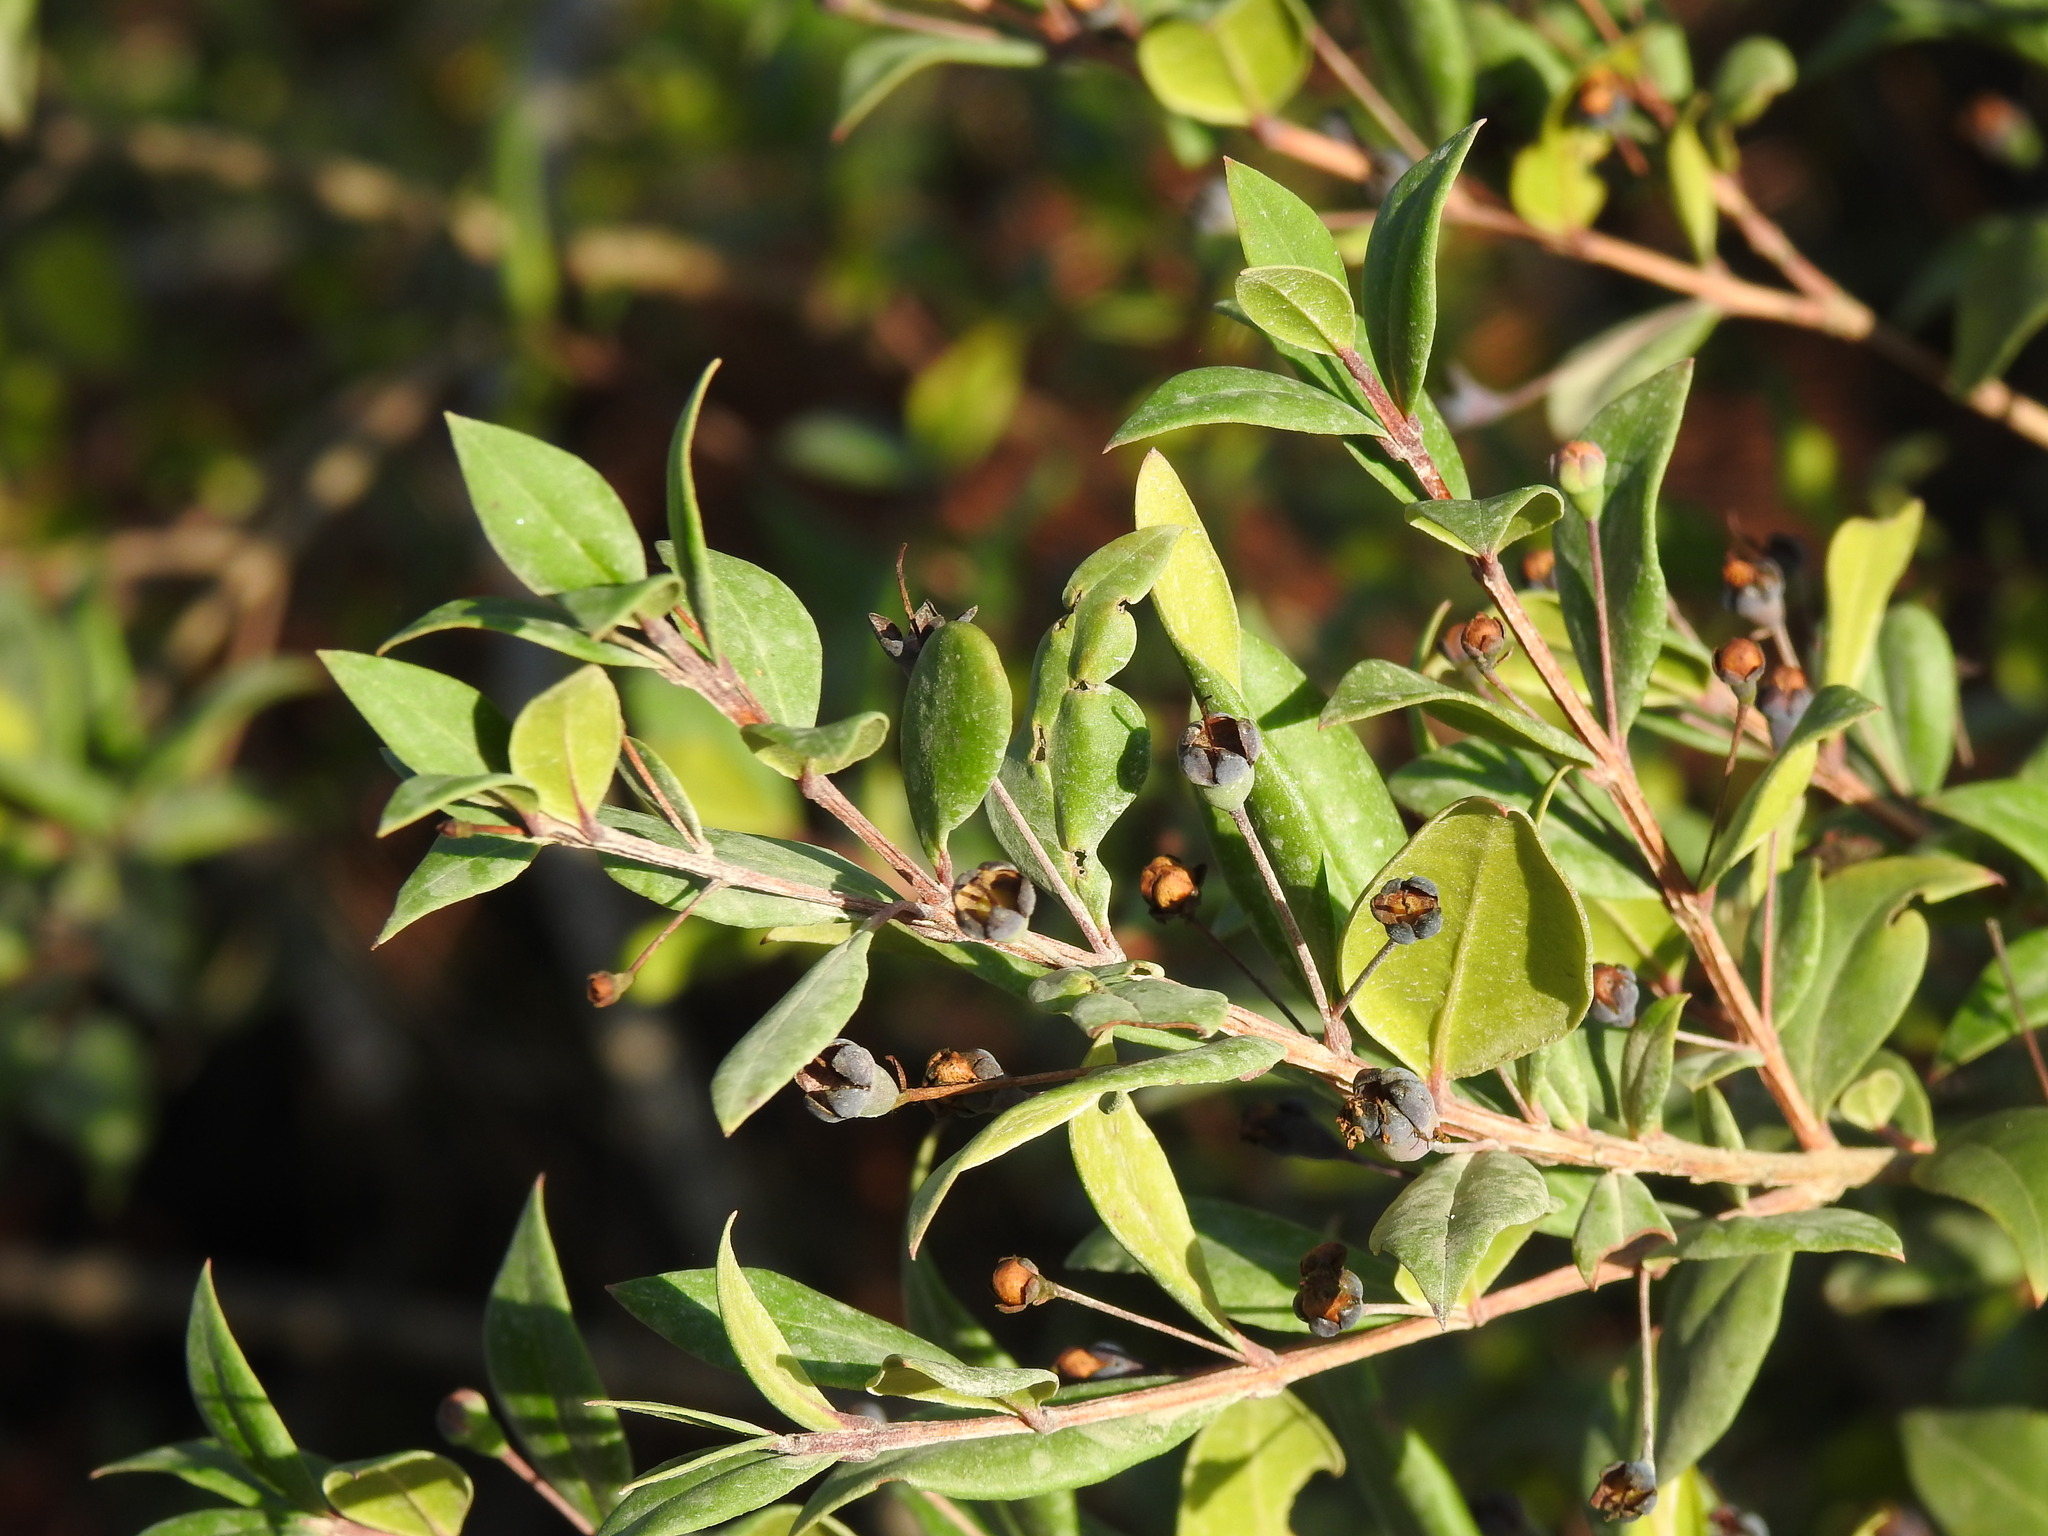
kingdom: Plantae
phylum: Tracheophyta
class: Magnoliopsida
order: Myrtales
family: Myrtaceae
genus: Myrtus
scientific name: Myrtus communis
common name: Myrtle
